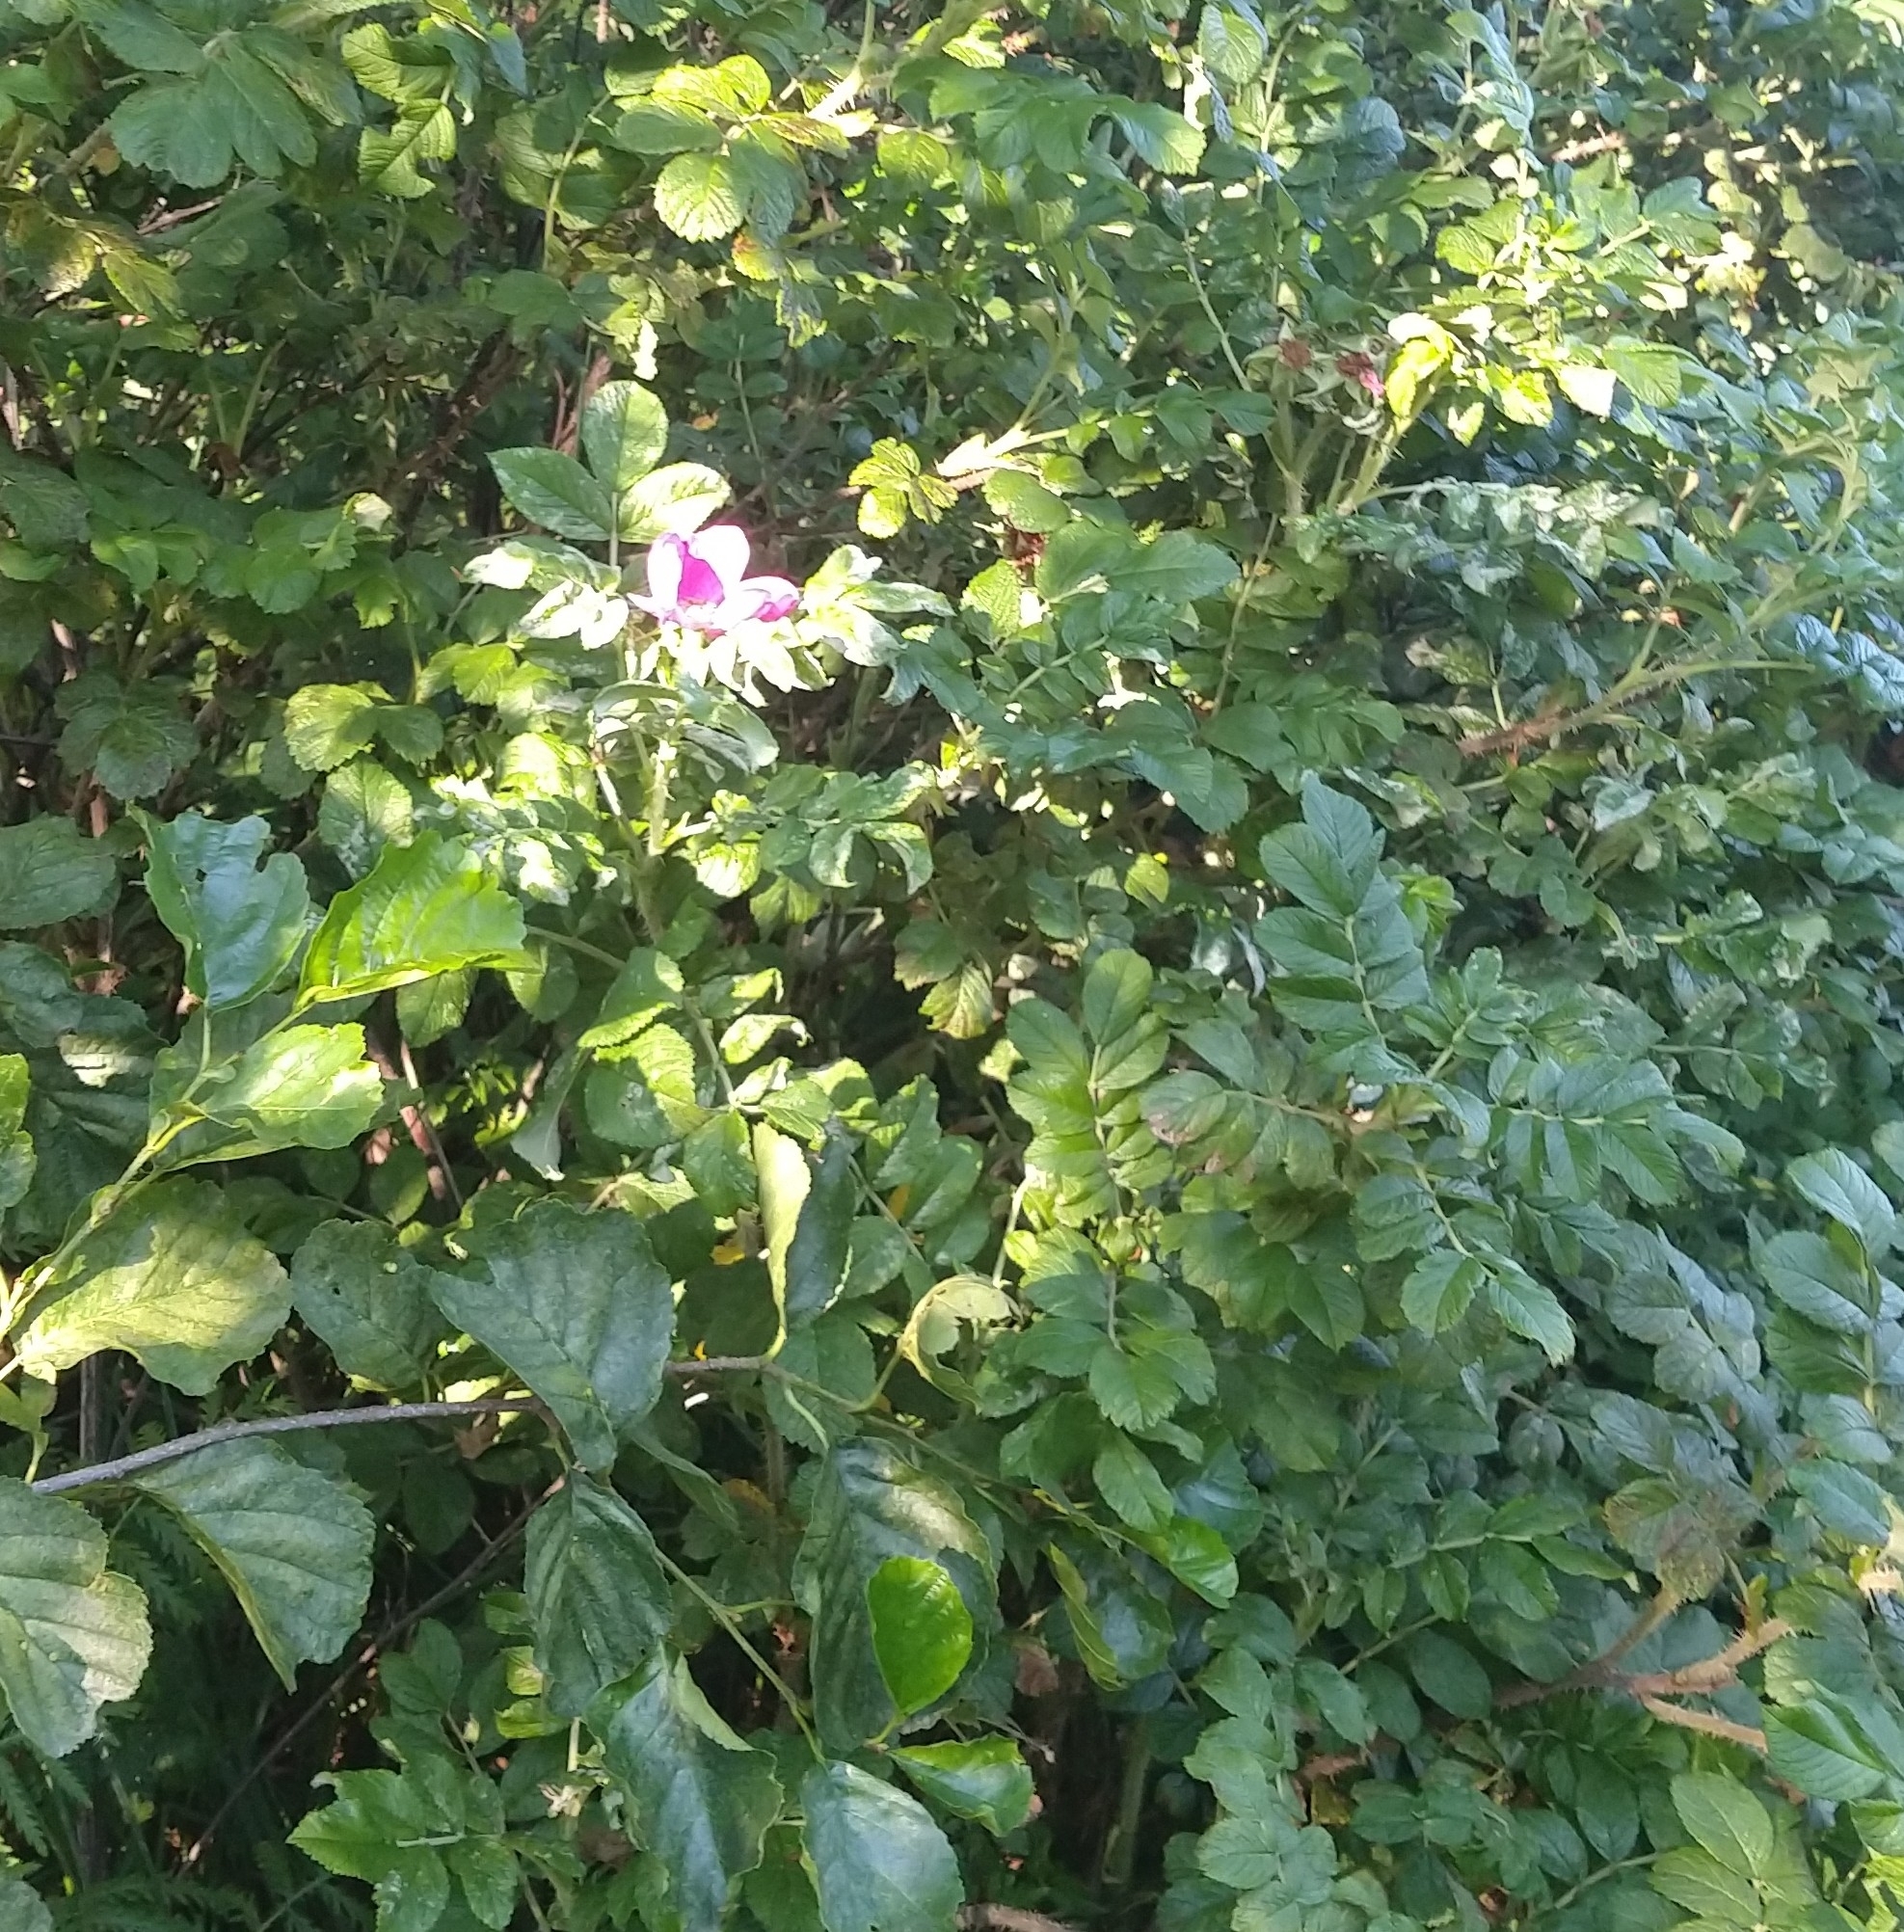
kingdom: Plantae
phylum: Tracheophyta
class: Magnoliopsida
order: Rosales
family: Rosaceae
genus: Rosa
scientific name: Rosa rugosa
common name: Japanese rose
